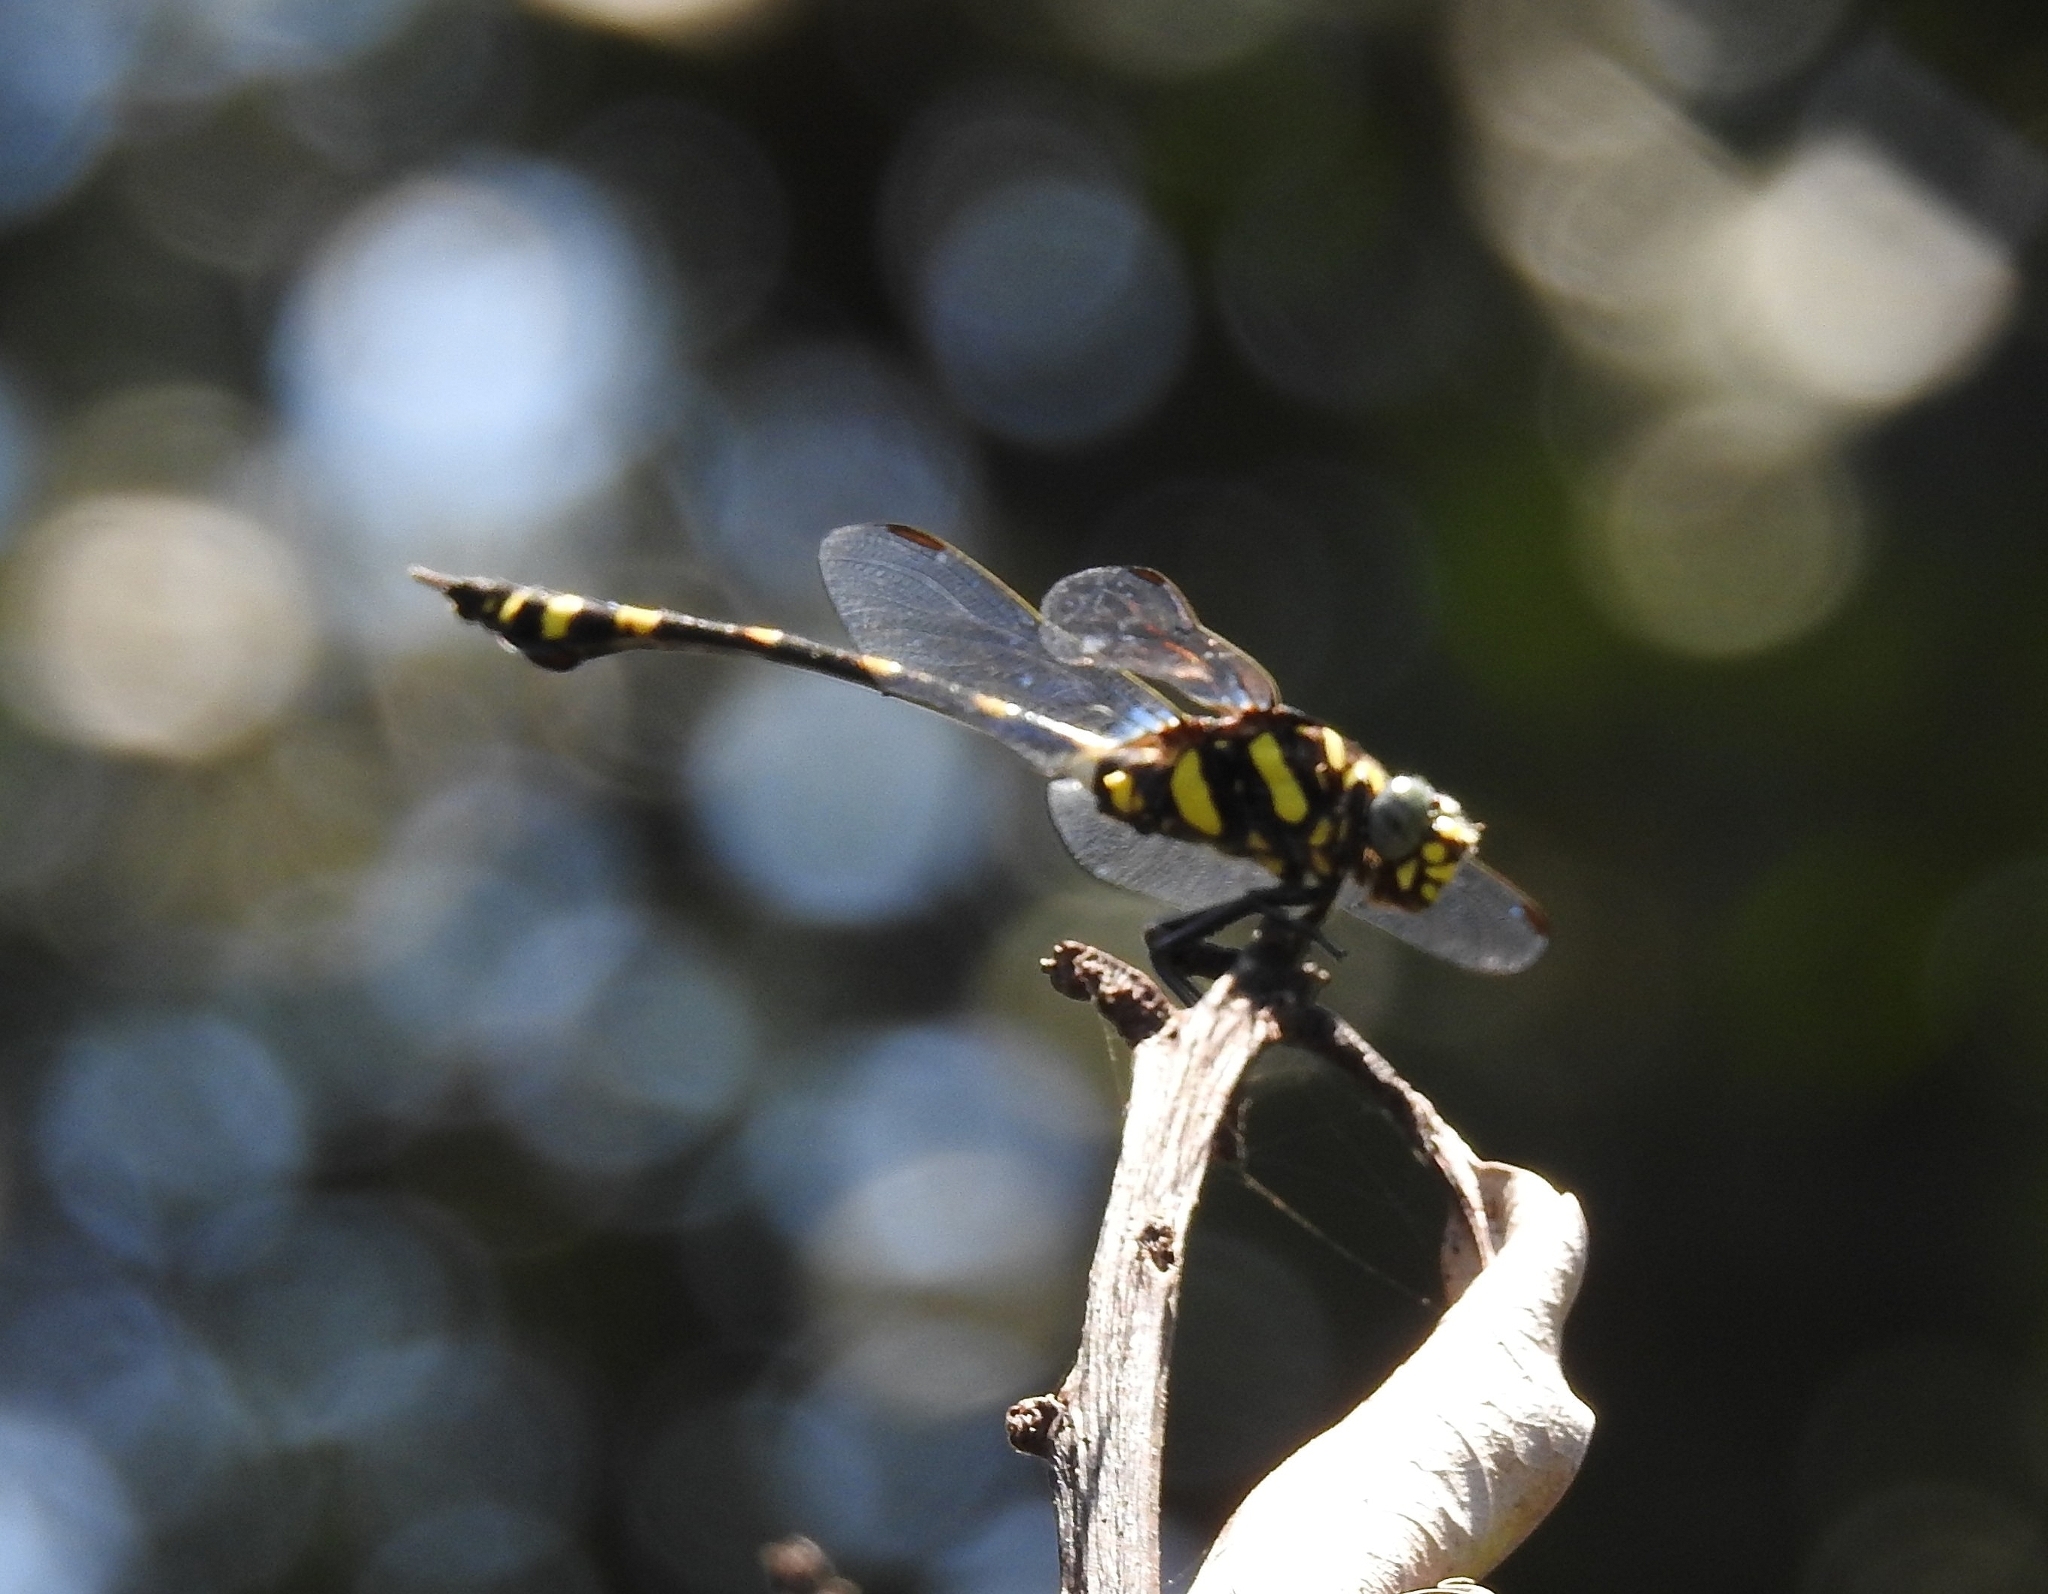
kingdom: Animalia
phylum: Arthropoda
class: Insecta
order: Odonata
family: Gomphidae
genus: Ictinogomphus
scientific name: Ictinogomphus rapax
